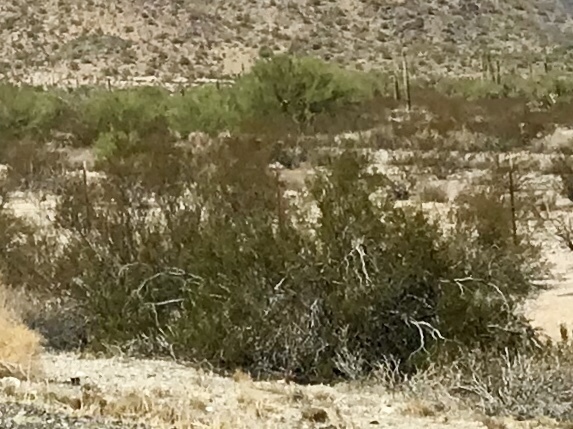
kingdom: Plantae
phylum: Tracheophyta
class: Magnoliopsida
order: Zygophyllales
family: Zygophyllaceae
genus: Larrea
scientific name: Larrea tridentata
